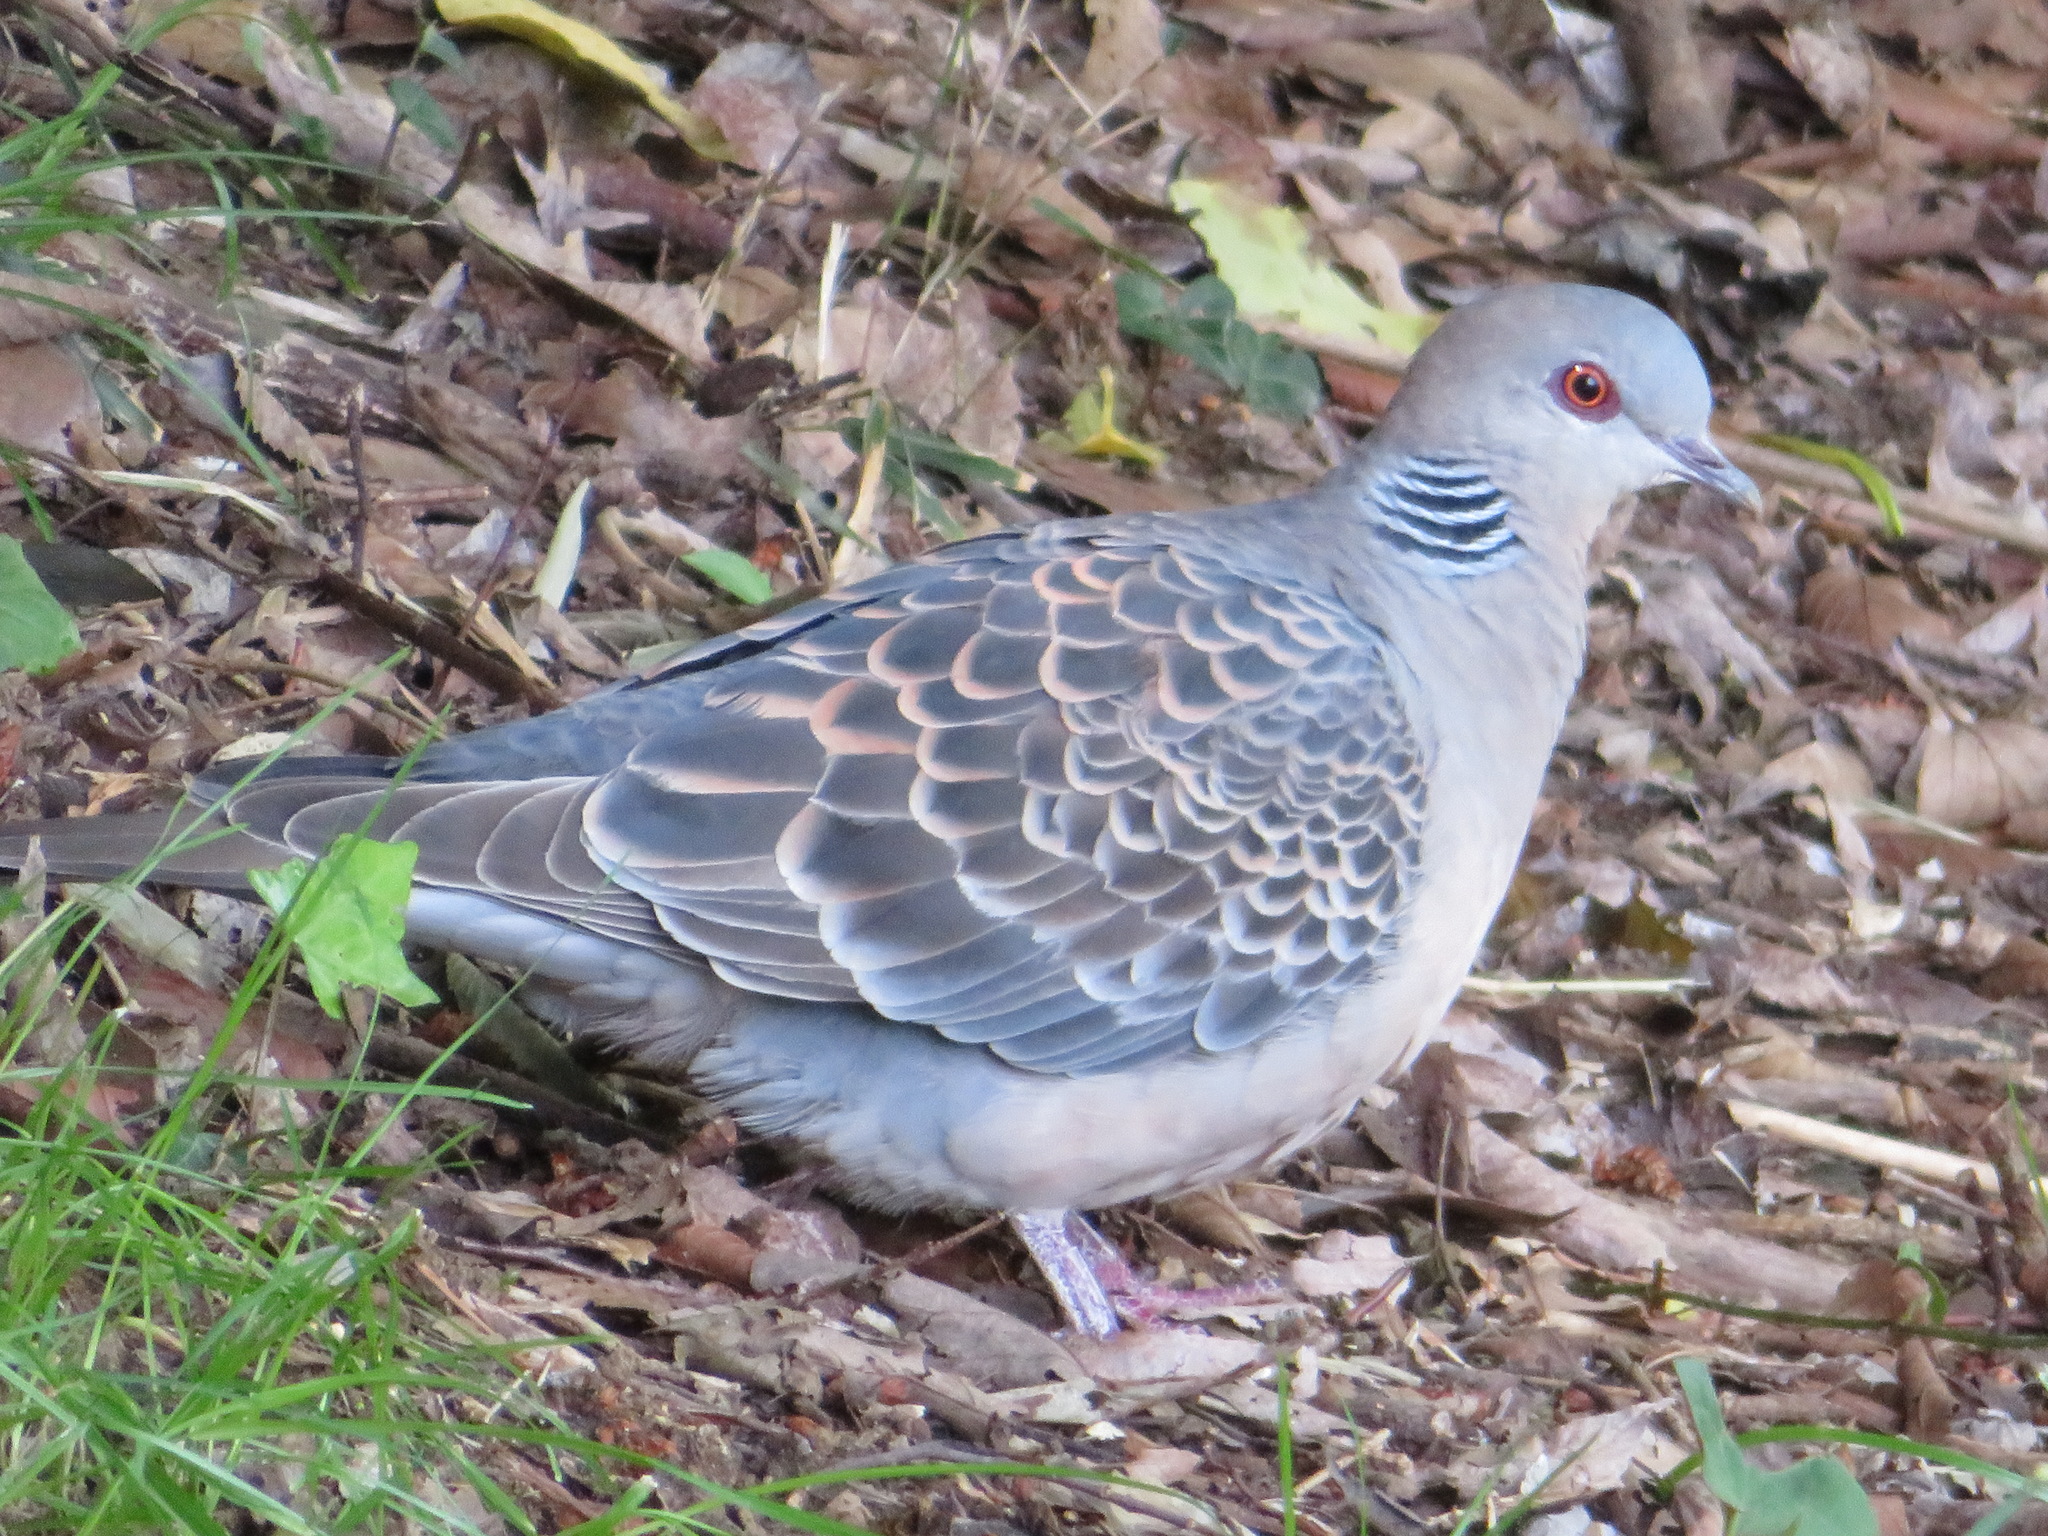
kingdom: Animalia
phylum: Chordata
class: Aves
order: Columbiformes
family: Columbidae
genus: Streptopelia
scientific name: Streptopelia orientalis
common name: Oriental turtle dove
